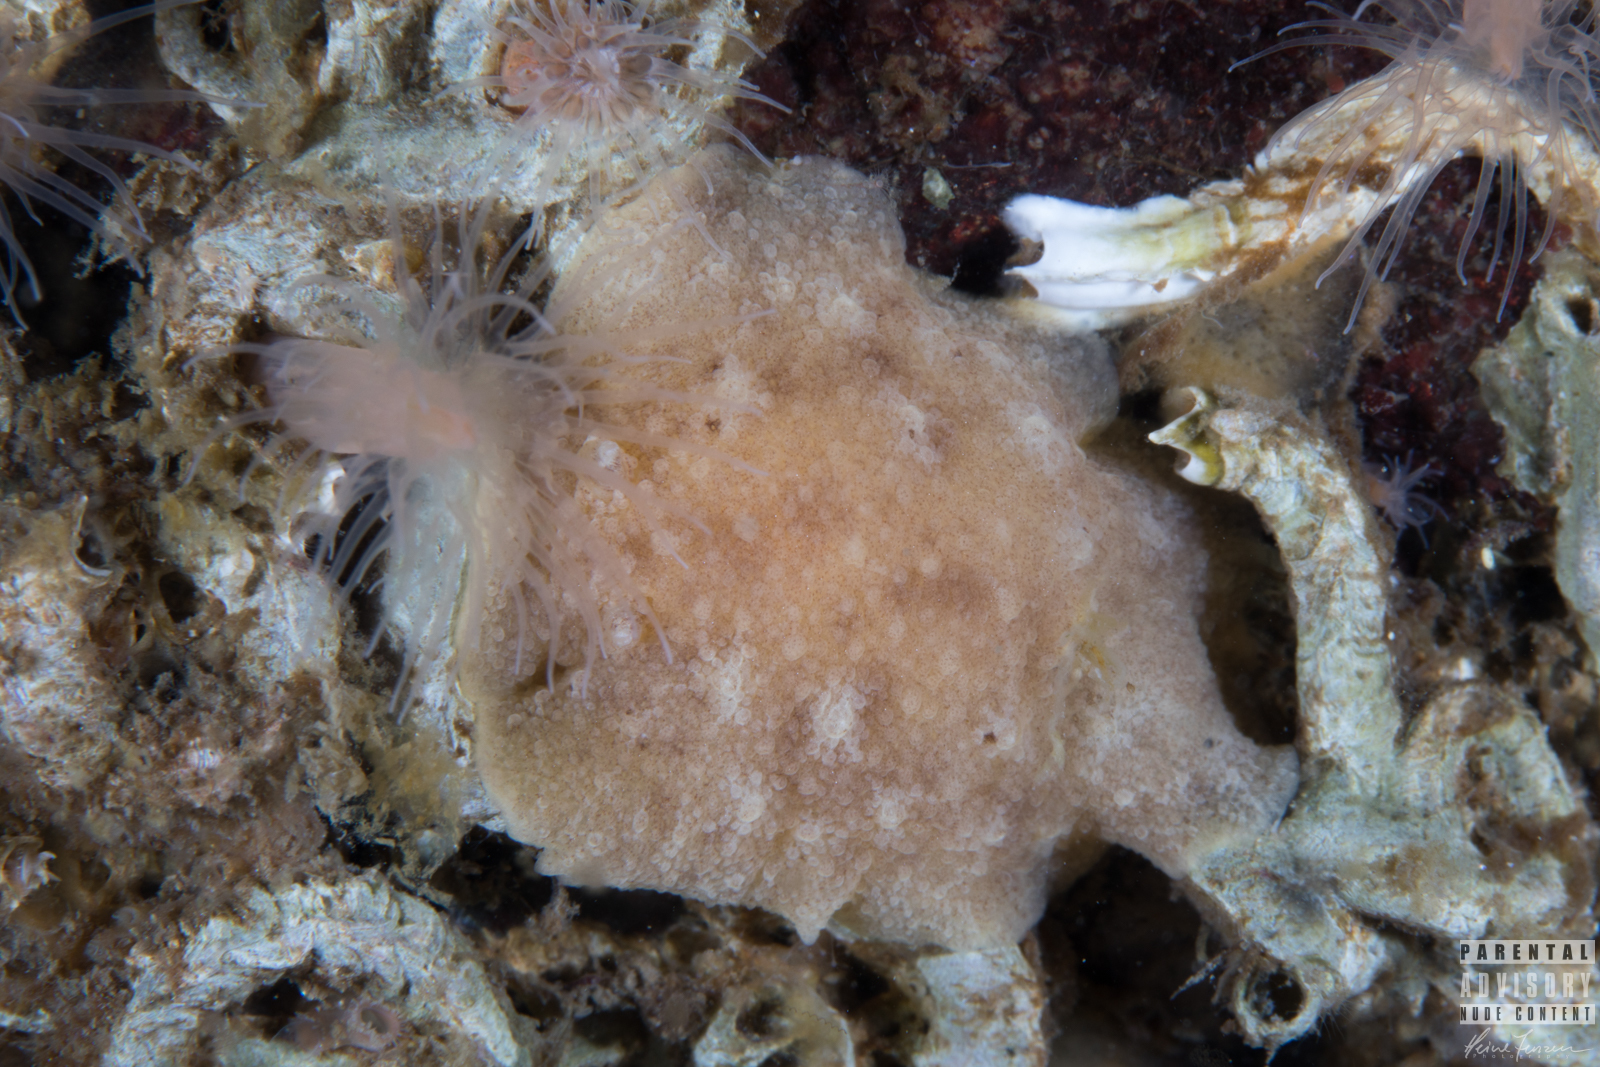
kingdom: Animalia
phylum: Mollusca
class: Gastropoda
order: Nudibranchia
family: Discodorididae
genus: Geitodoris
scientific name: Geitodoris planata
